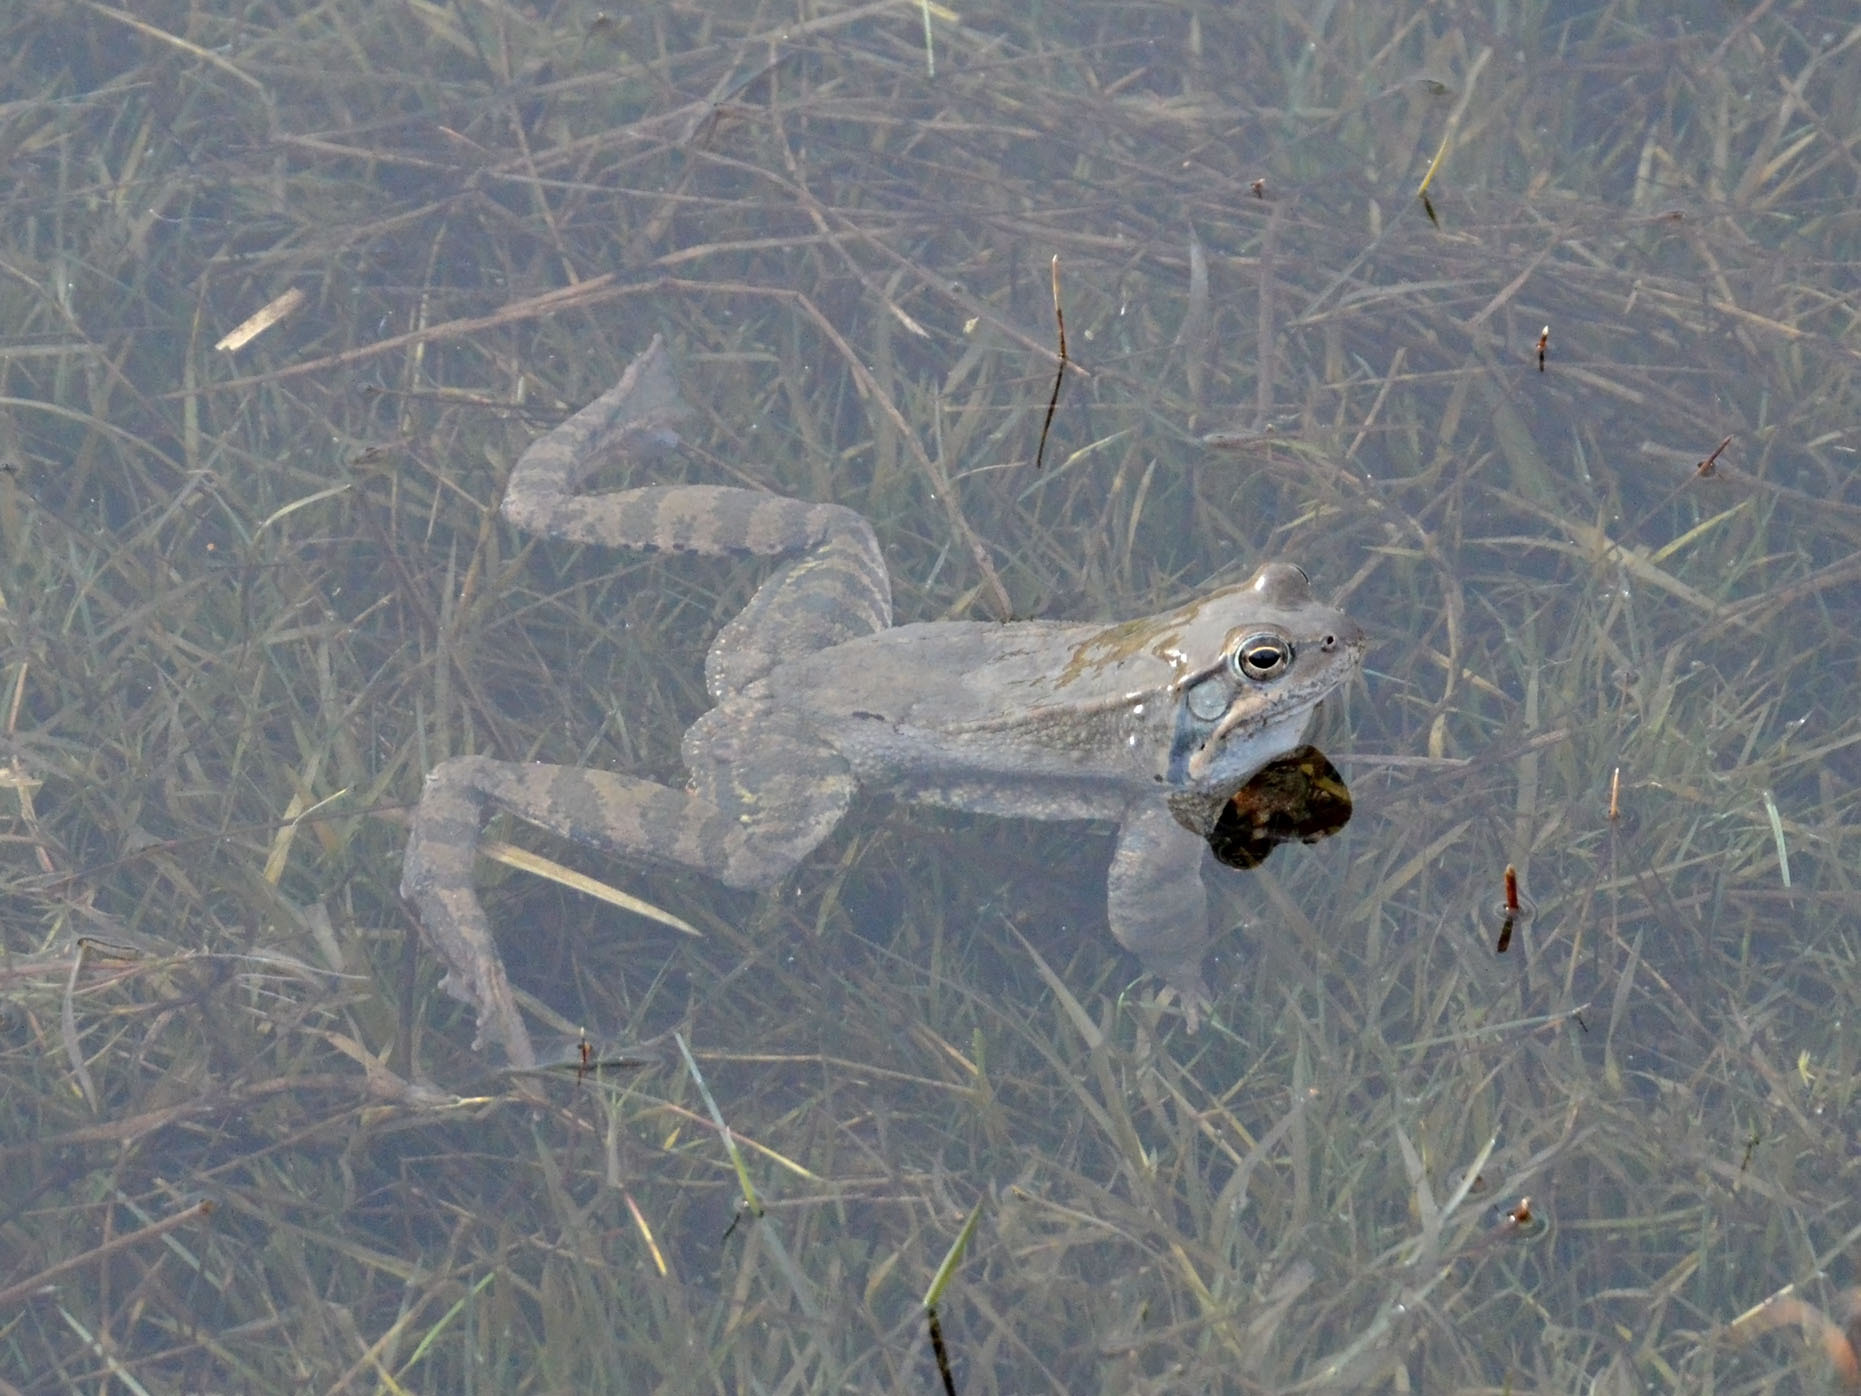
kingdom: Animalia
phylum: Chordata
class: Amphibia
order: Anura
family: Ranidae
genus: Rana
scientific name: Rana temporaria
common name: Common frog
